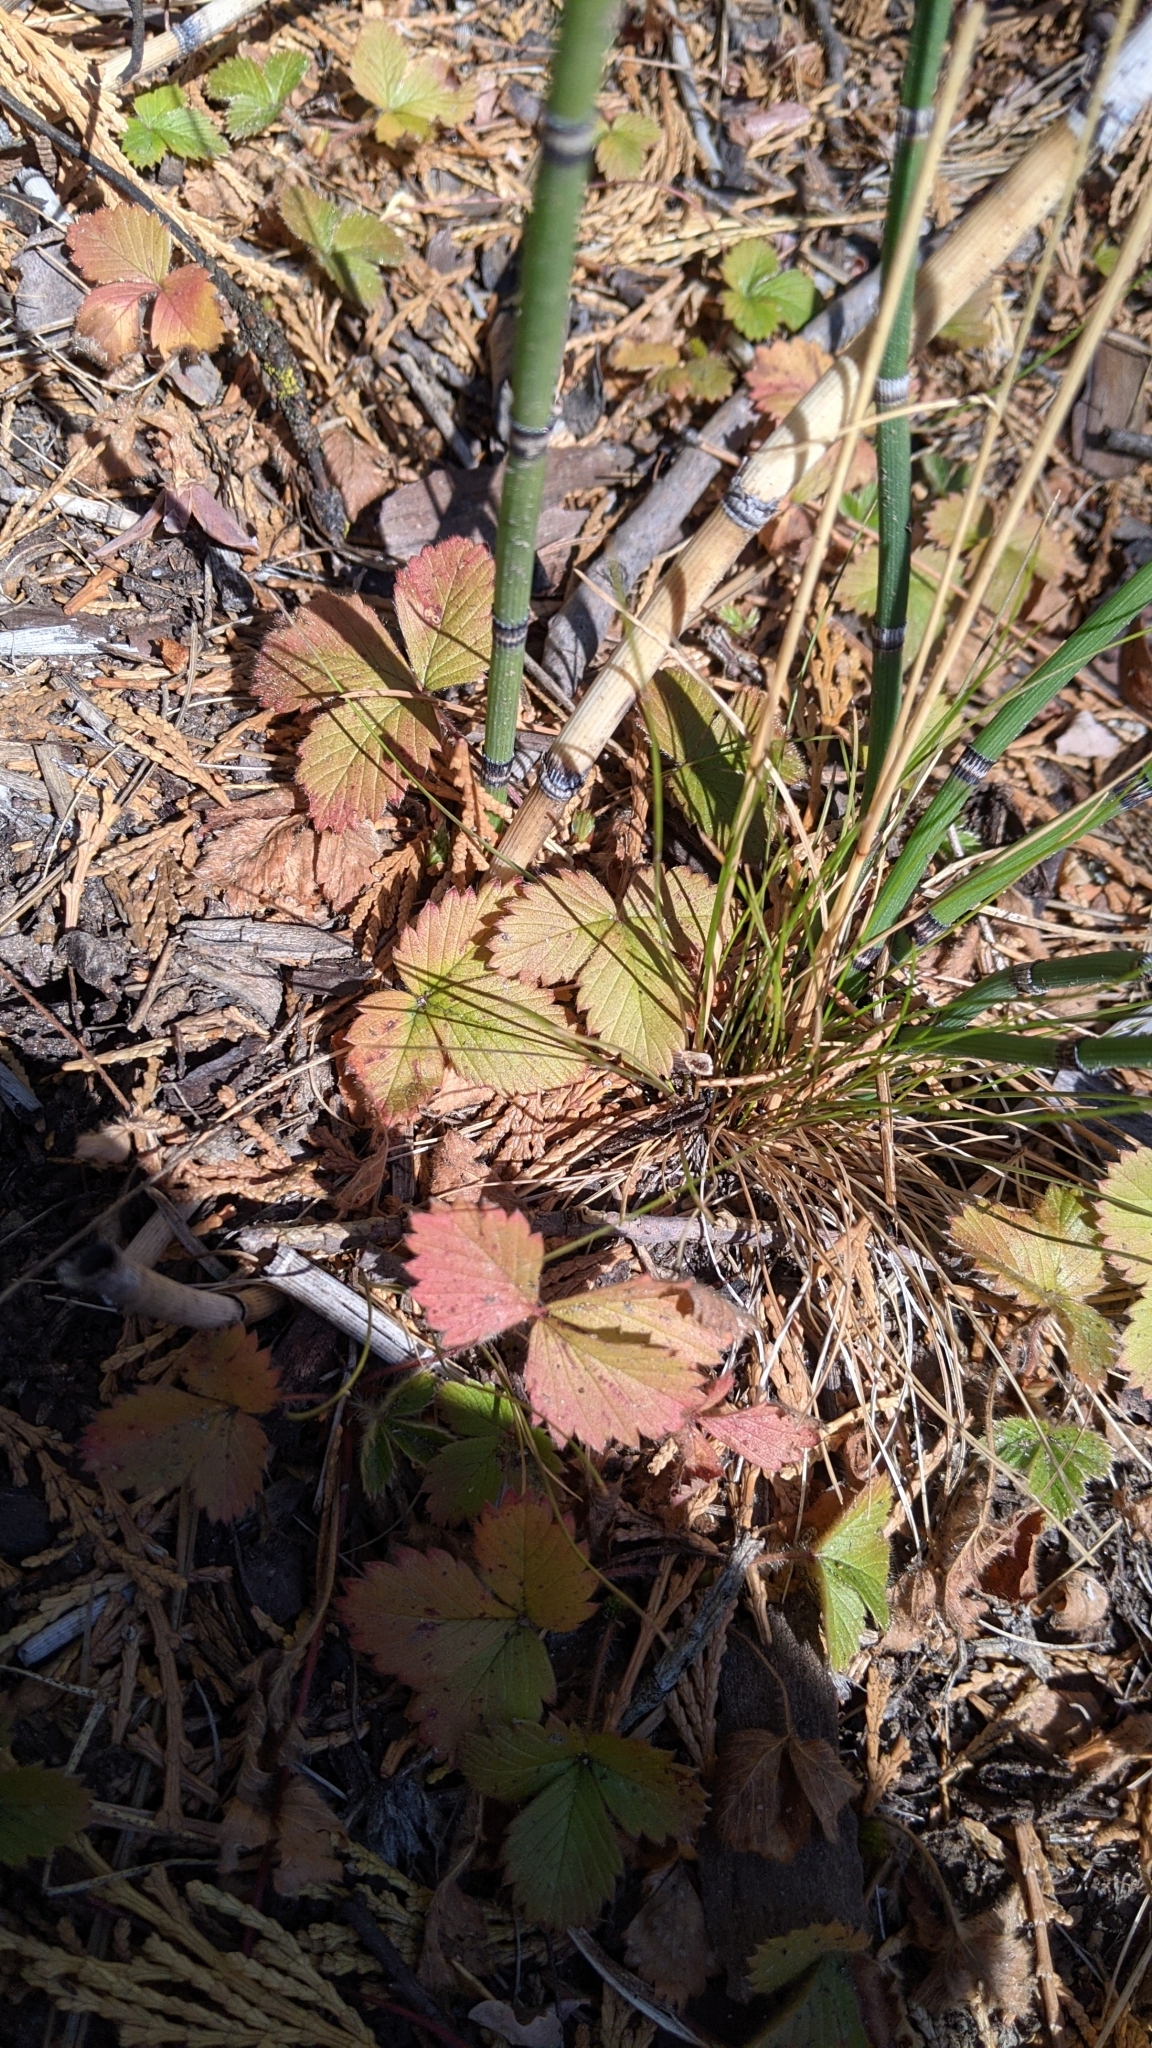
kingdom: Plantae
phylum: Tracheophyta
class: Magnoliopsida
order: Rosales
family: Rosaceae
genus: Fragaria
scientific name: Fragaria vesca
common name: Wild strawberry
